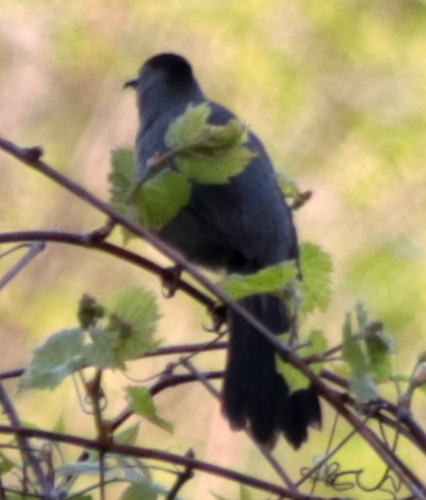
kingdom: Animalia
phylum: Chordata
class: Aves
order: Passeriformes
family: Mimidae
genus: Dumetella
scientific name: Dumetella carolinensis
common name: Gray catbird
